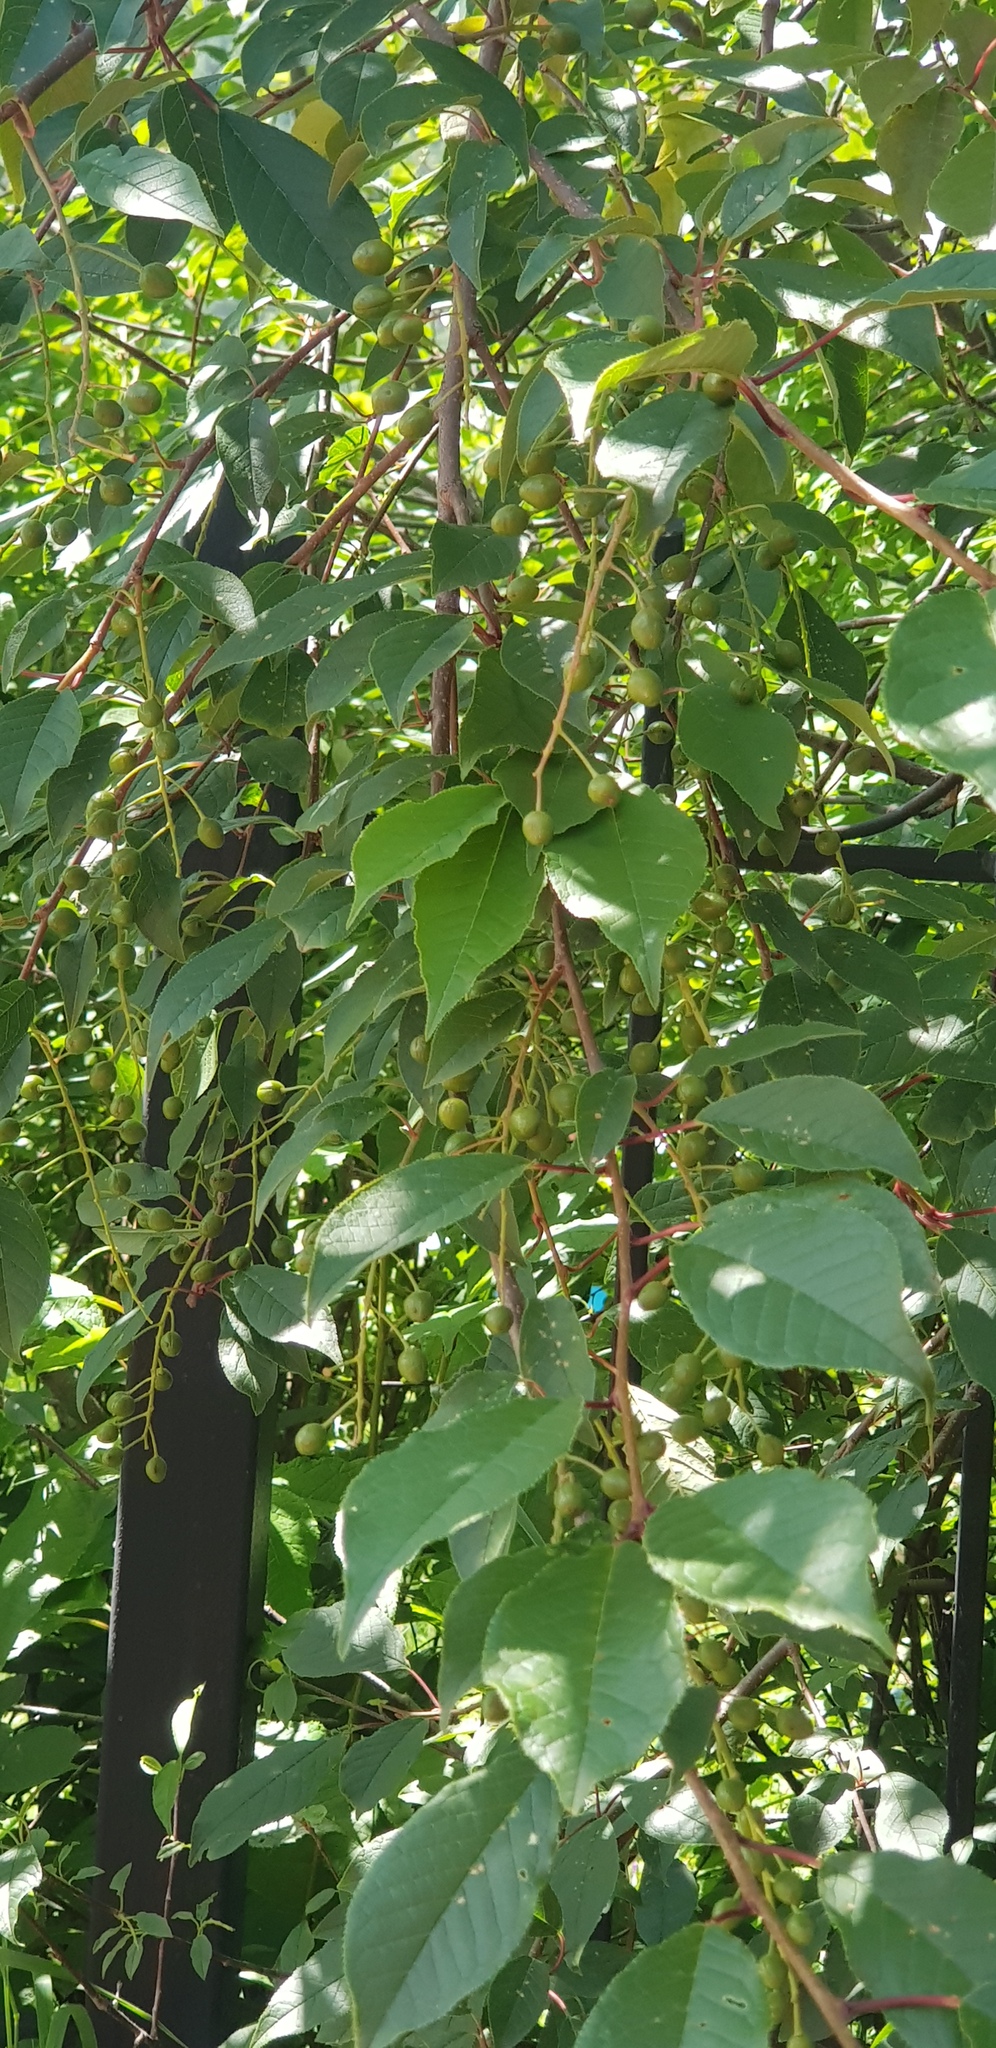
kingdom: Plantae
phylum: Tracheophyta
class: Magnoliopsida
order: Rosales
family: Rosaceae
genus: Prunus
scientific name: Prunus padus
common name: Bird cherry
